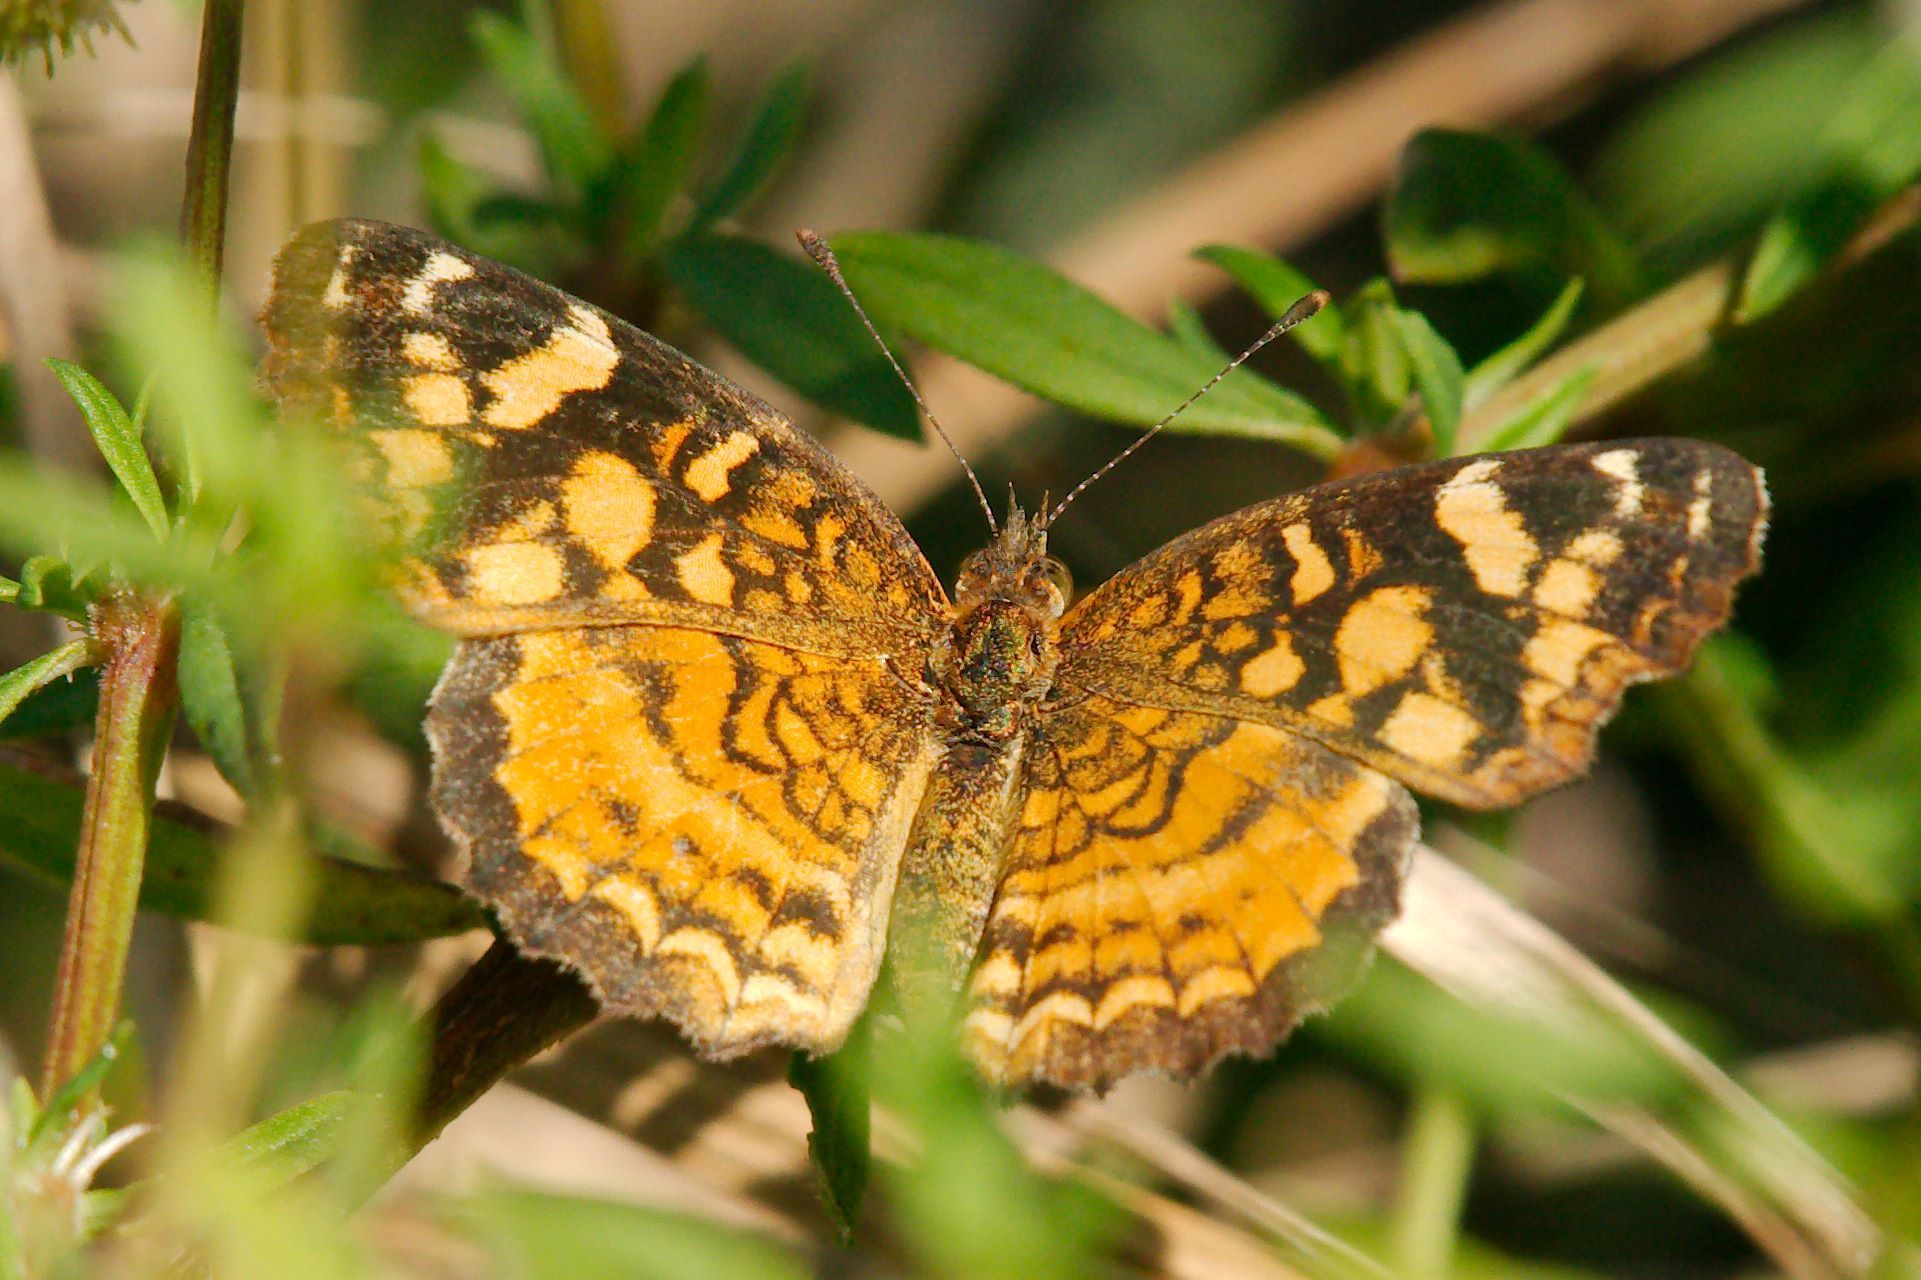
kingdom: Animalia
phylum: Arthropoda
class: Insecta
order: Lepidoptera
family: Nymphalidae
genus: Anthanassa
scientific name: Anthanassa frisia
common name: Cuban crescent
